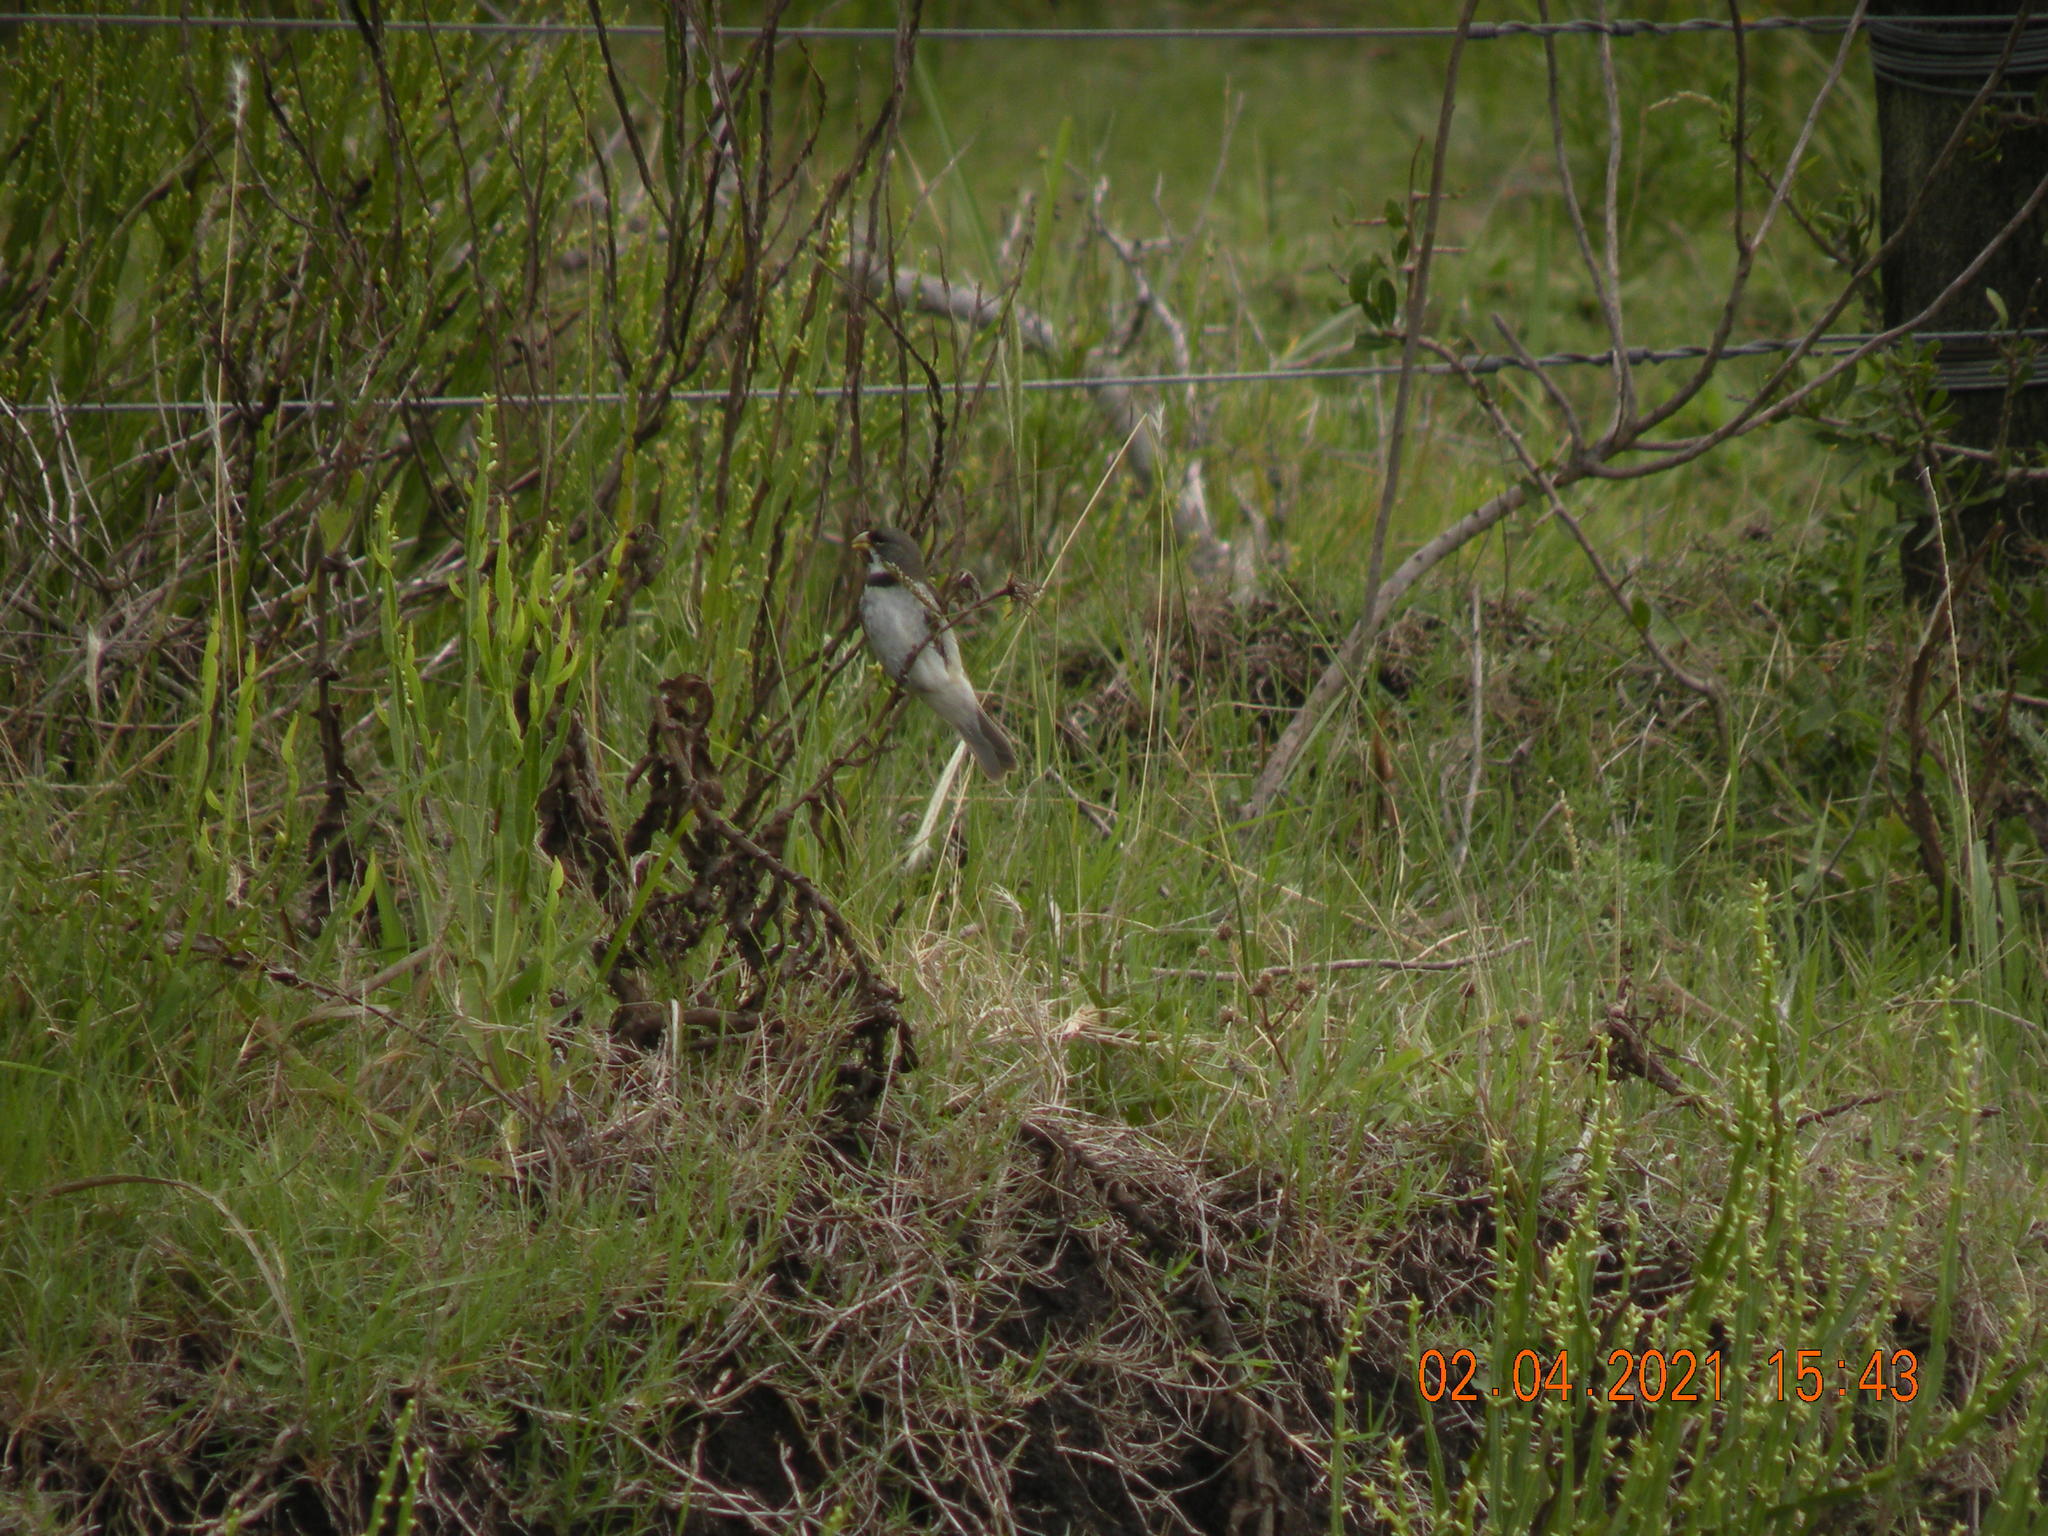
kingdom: Animalia
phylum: Chordata
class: Aves
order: Passeriformes
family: Thraupidae
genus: Sporophila
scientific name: Sporophila caerulescens
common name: Double-collared seedeater
